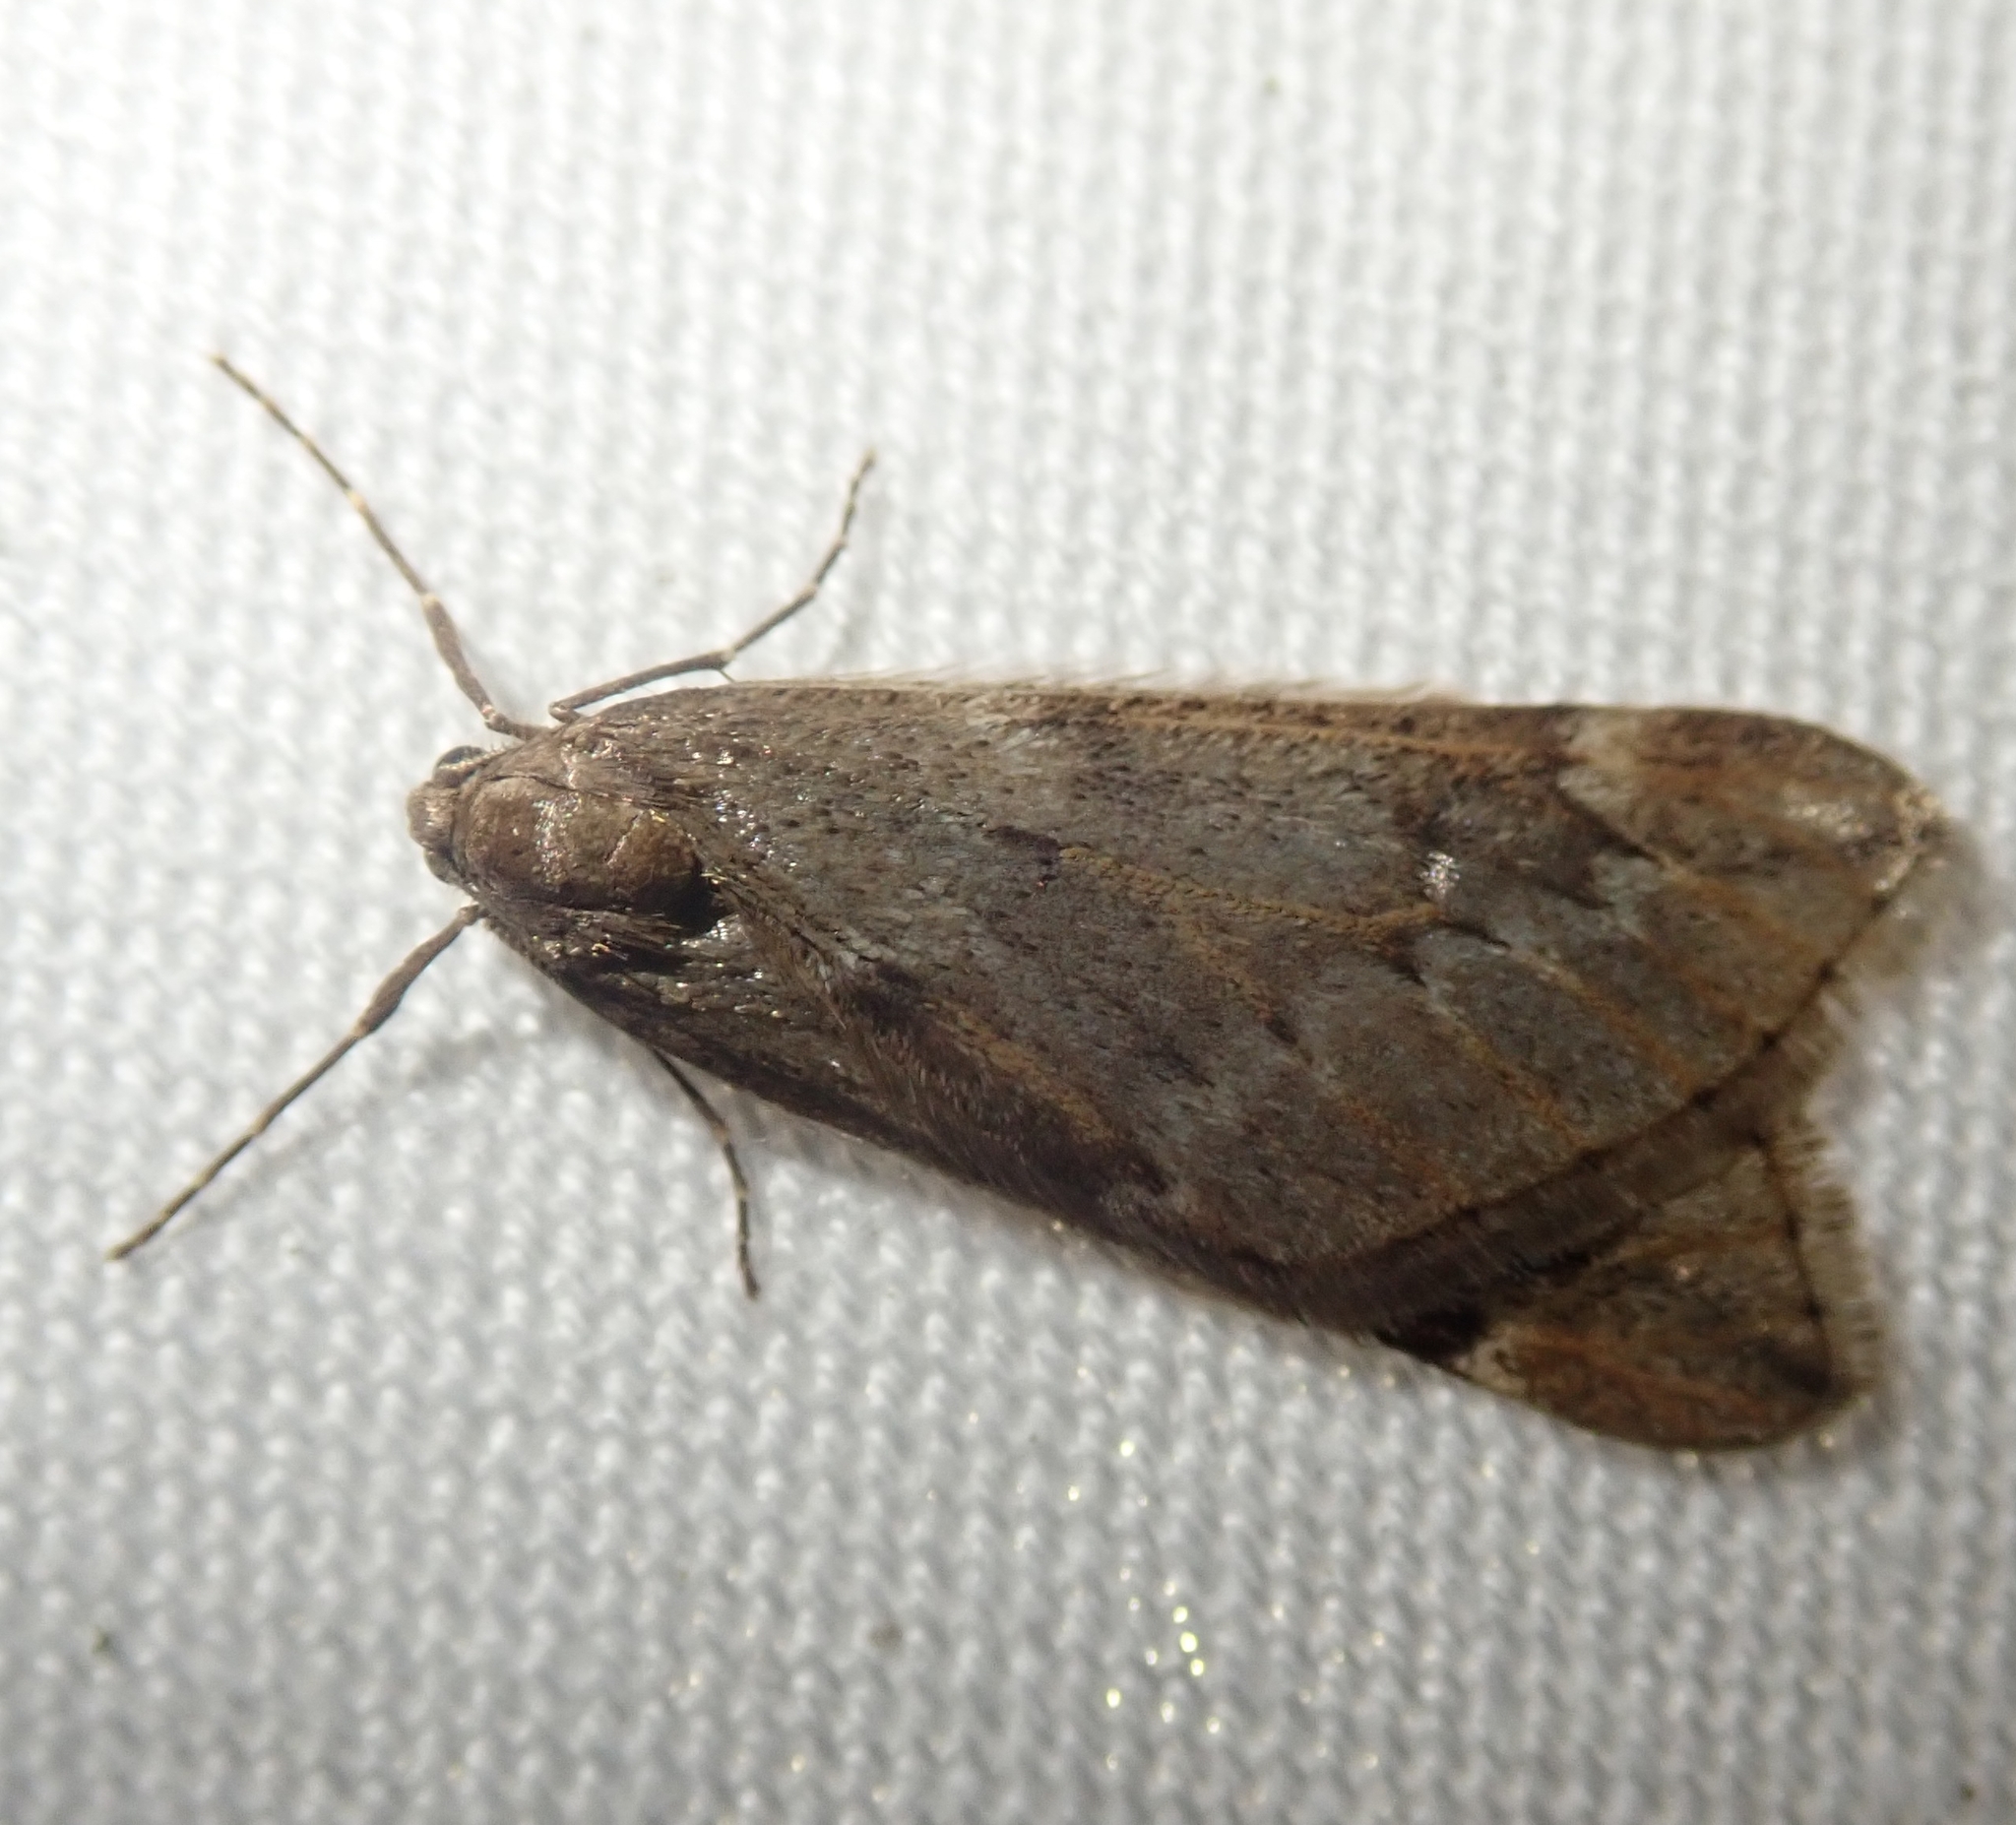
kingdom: Animalia
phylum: Arthropoda
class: Insecta
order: Lepidoptera
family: Geometridae
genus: Alsophila
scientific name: Alsophila aescularia
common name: March moth
